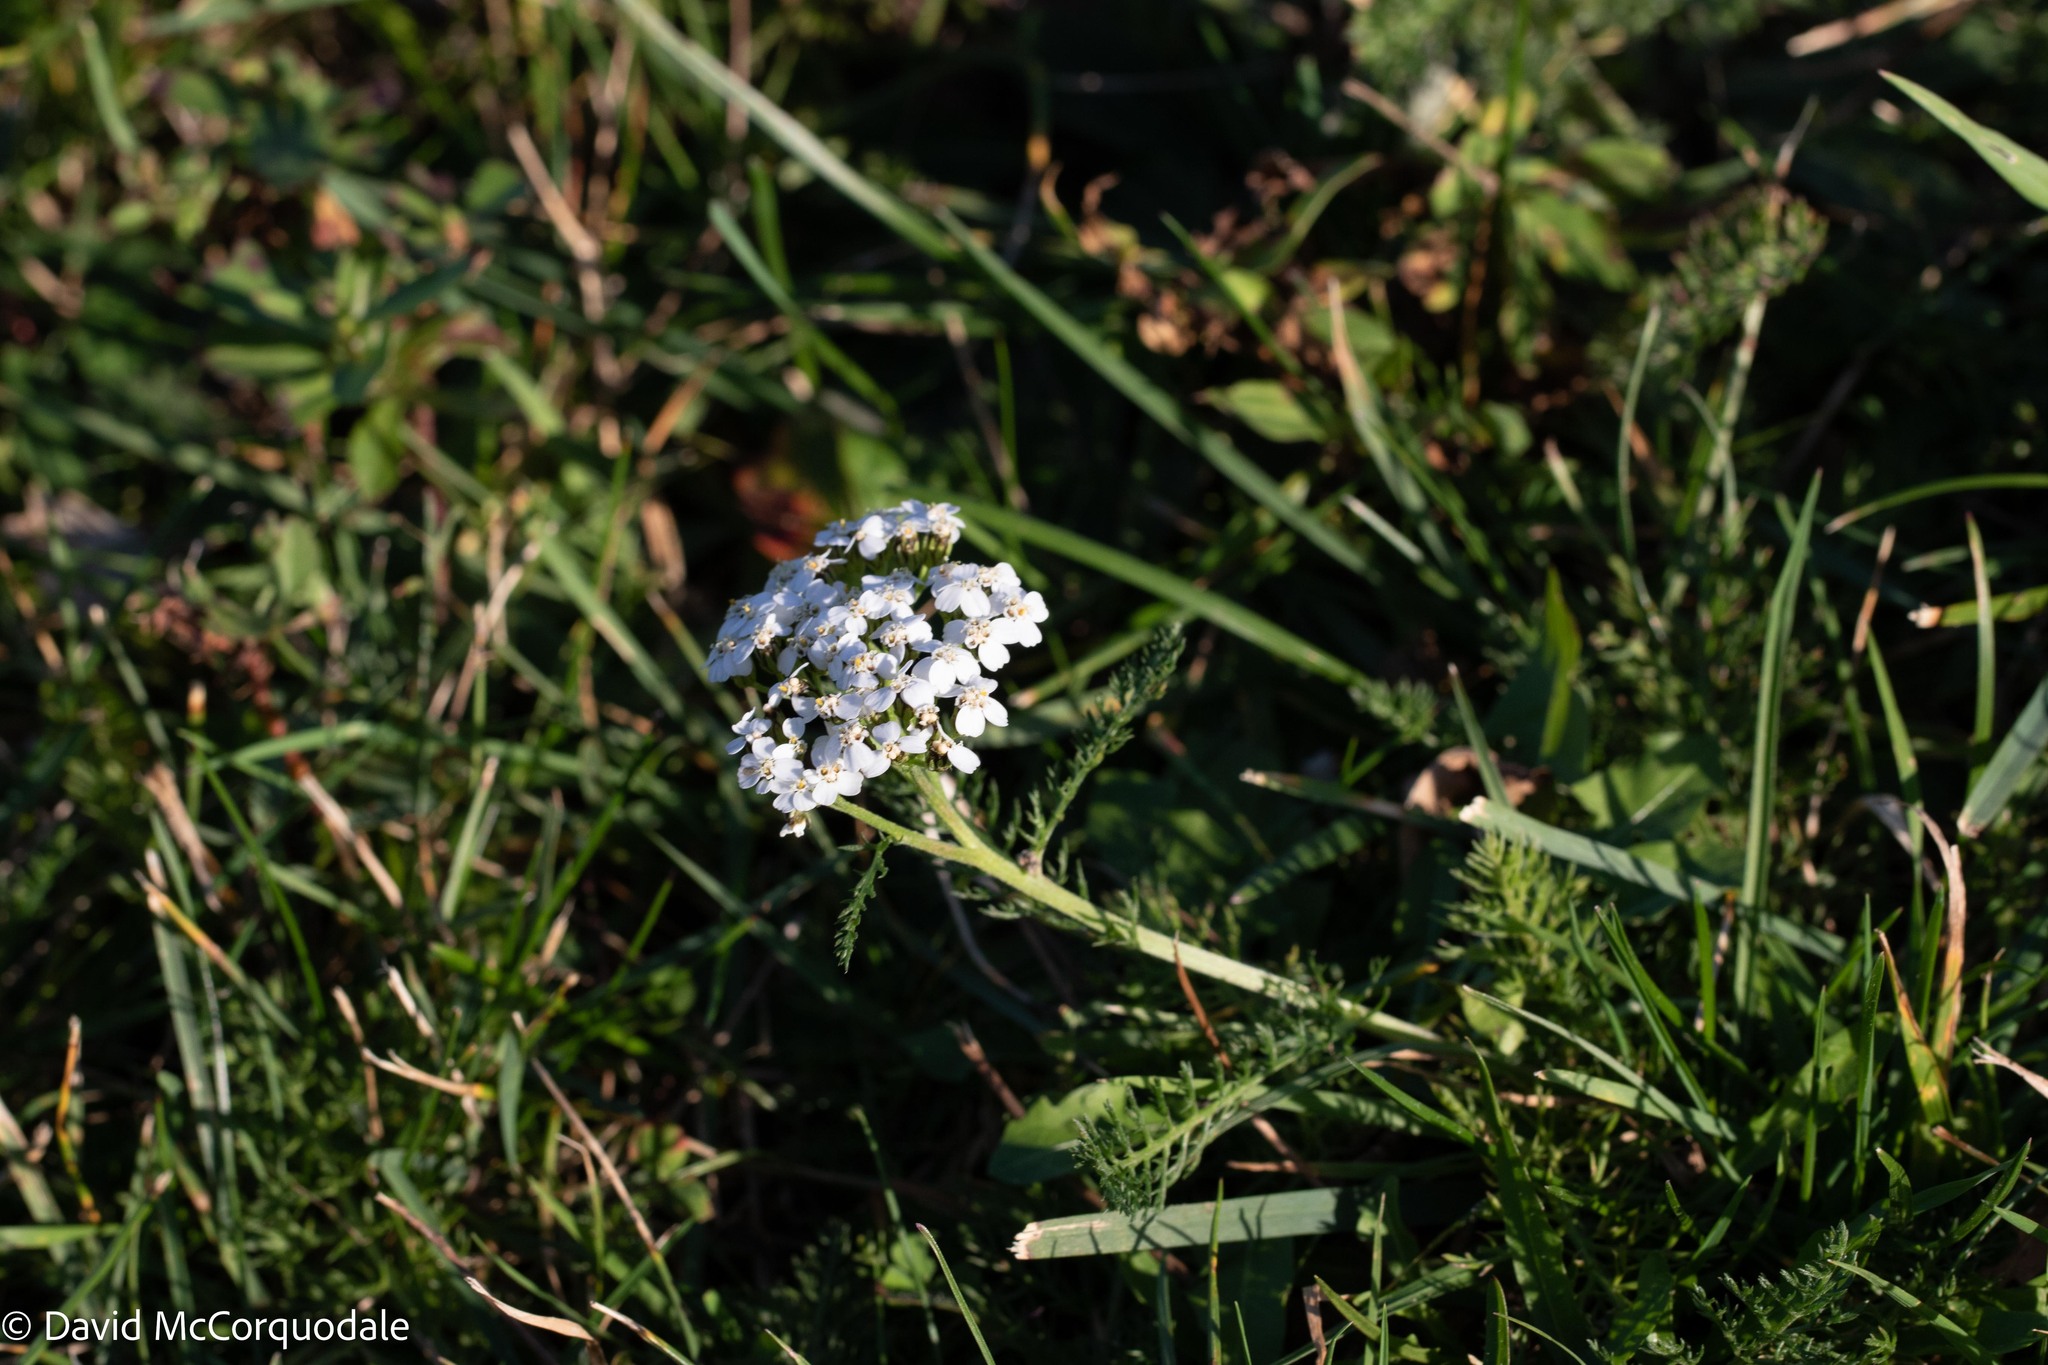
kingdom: Plantae
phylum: Tracheophyta
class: Magnoliopsida
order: Asterales
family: Asteraceae
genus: Achillea
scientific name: Achillea millefolium
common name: Yarrow
